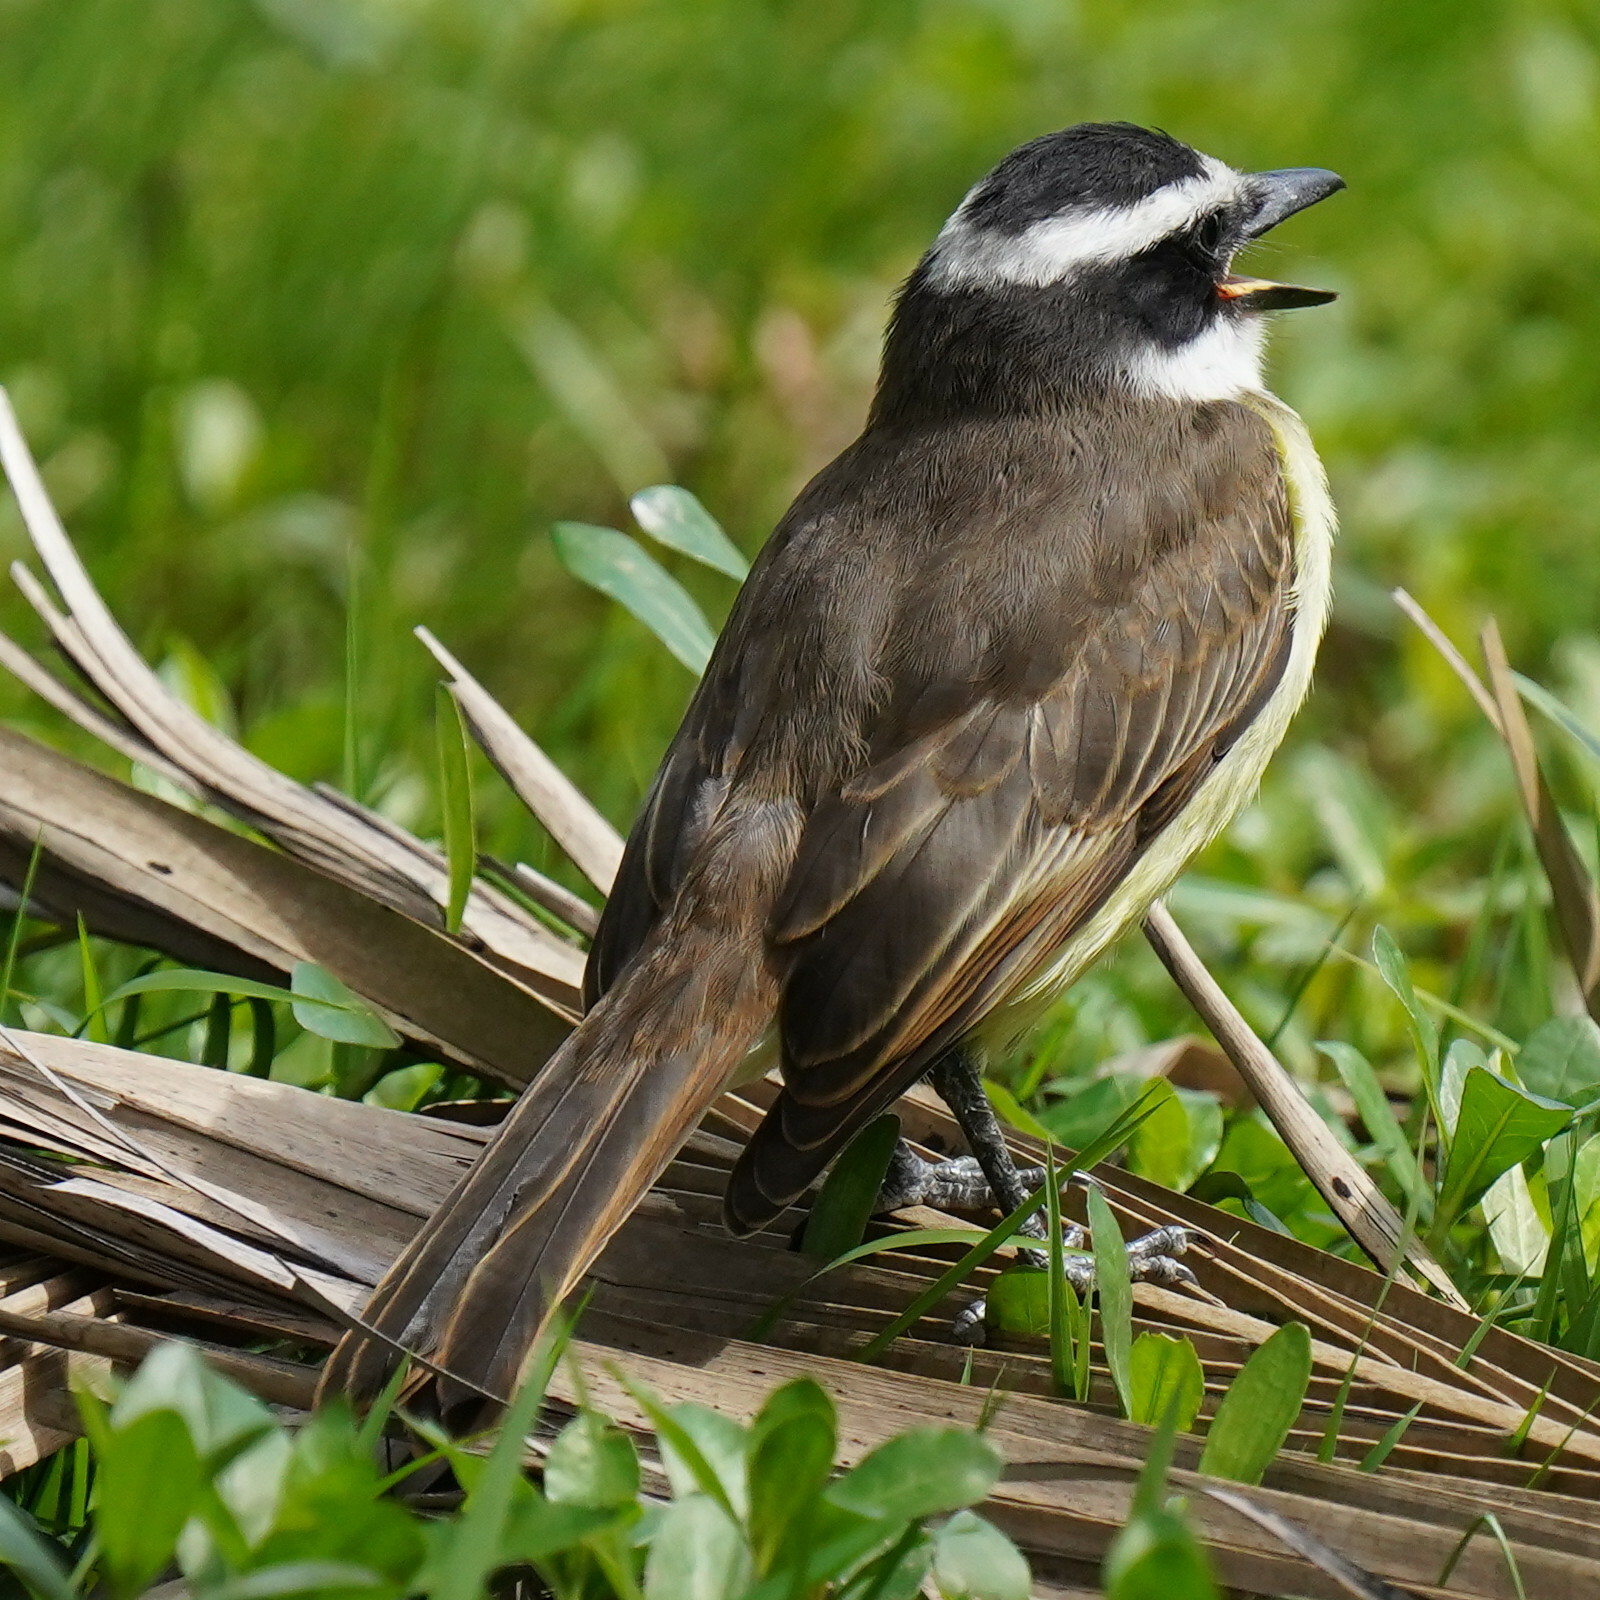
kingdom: Animalia
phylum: Chordata
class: Aves
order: Passeriformes
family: Tyrannidae
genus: Pitangus
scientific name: Pitangus sulphuratus
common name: Great kiskadee
